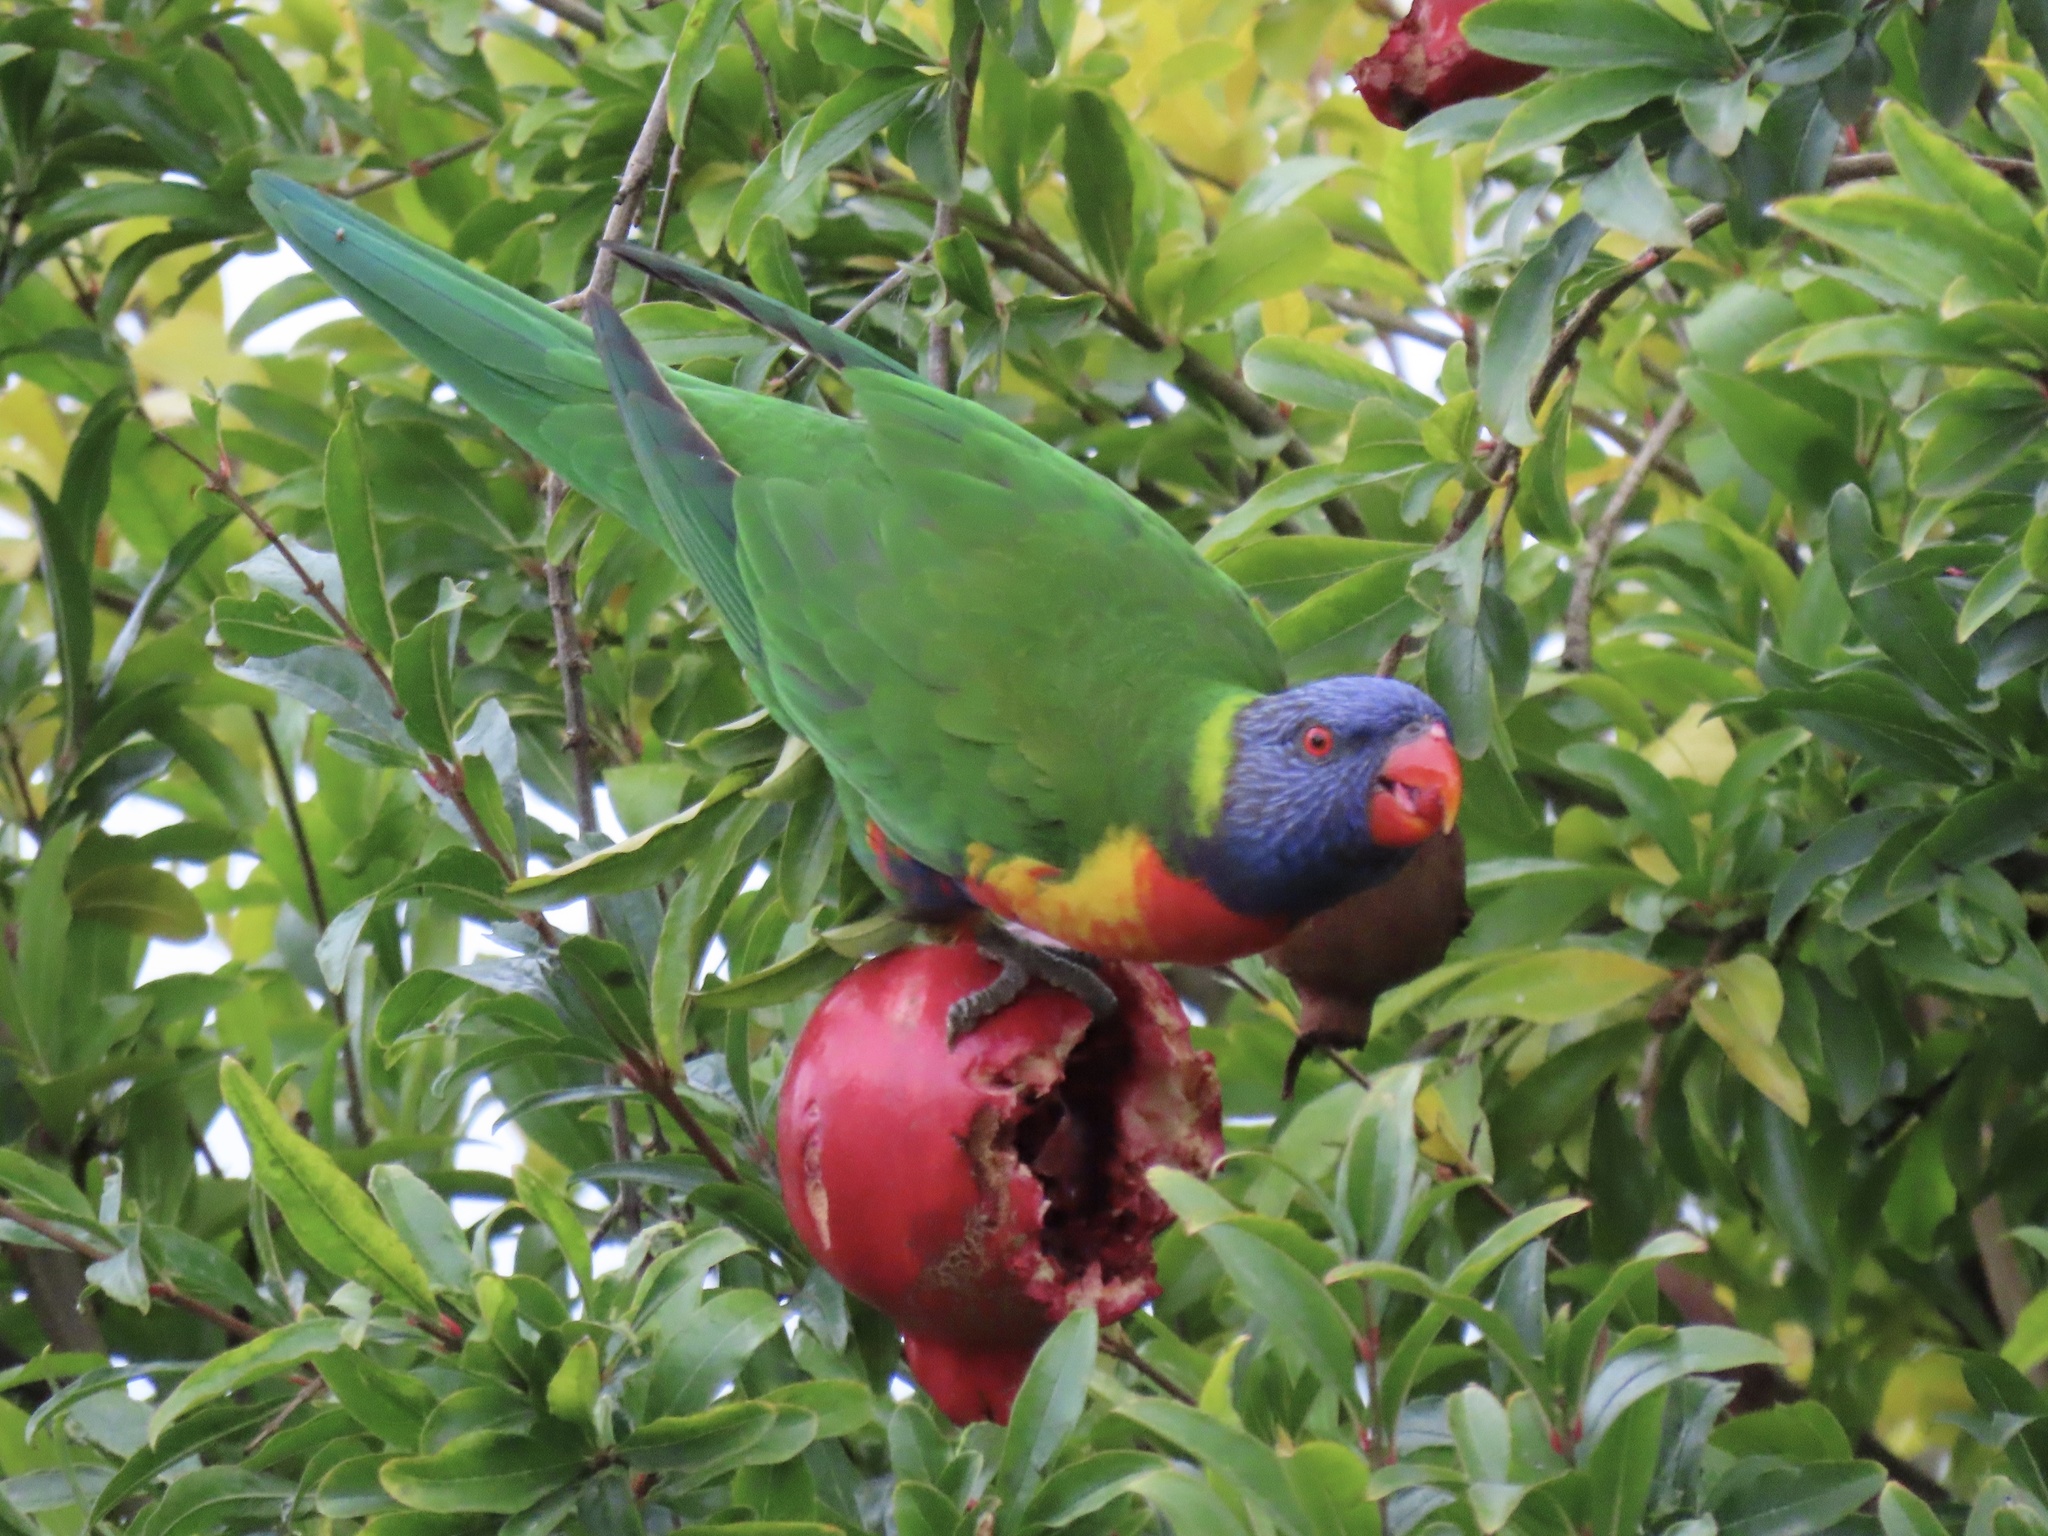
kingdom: Animalia
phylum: Chordata
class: Aves
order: Psittaciformes
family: Psittacidae
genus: Trichoglossus
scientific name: Trichoglossus haematodus
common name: Coconut lorikeet
